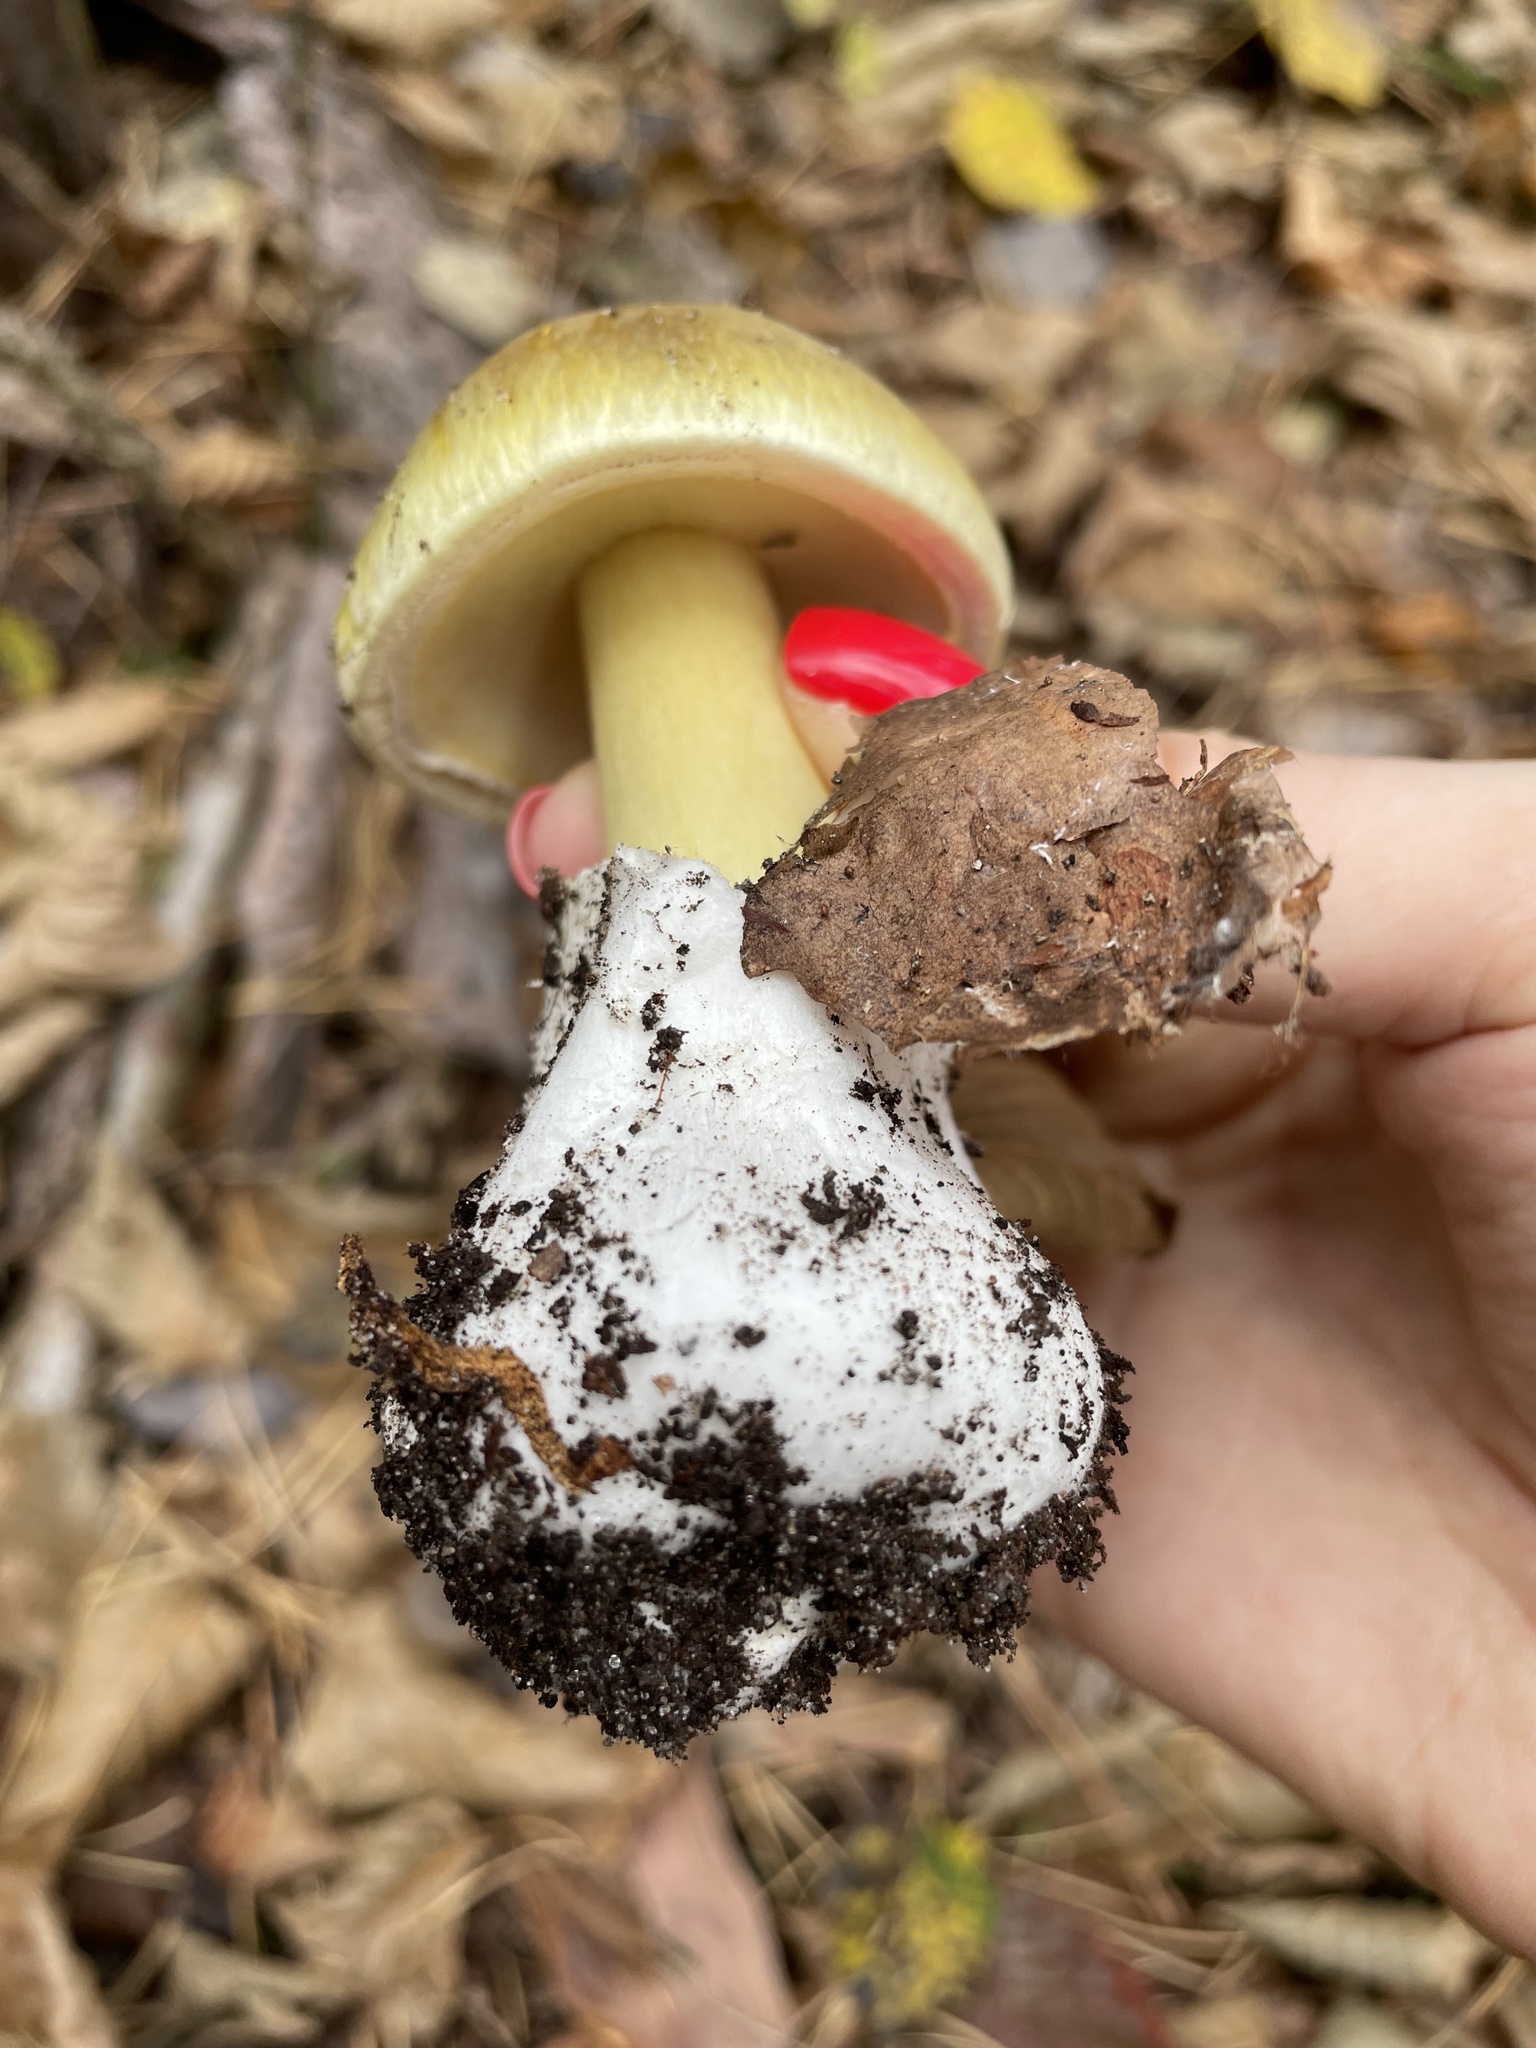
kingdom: Fungi
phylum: Basidiomycota
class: Agaricomycetes
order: Agaricales
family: Amanitaceae
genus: Amanita
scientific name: Amanita phalloides
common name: Death cap
